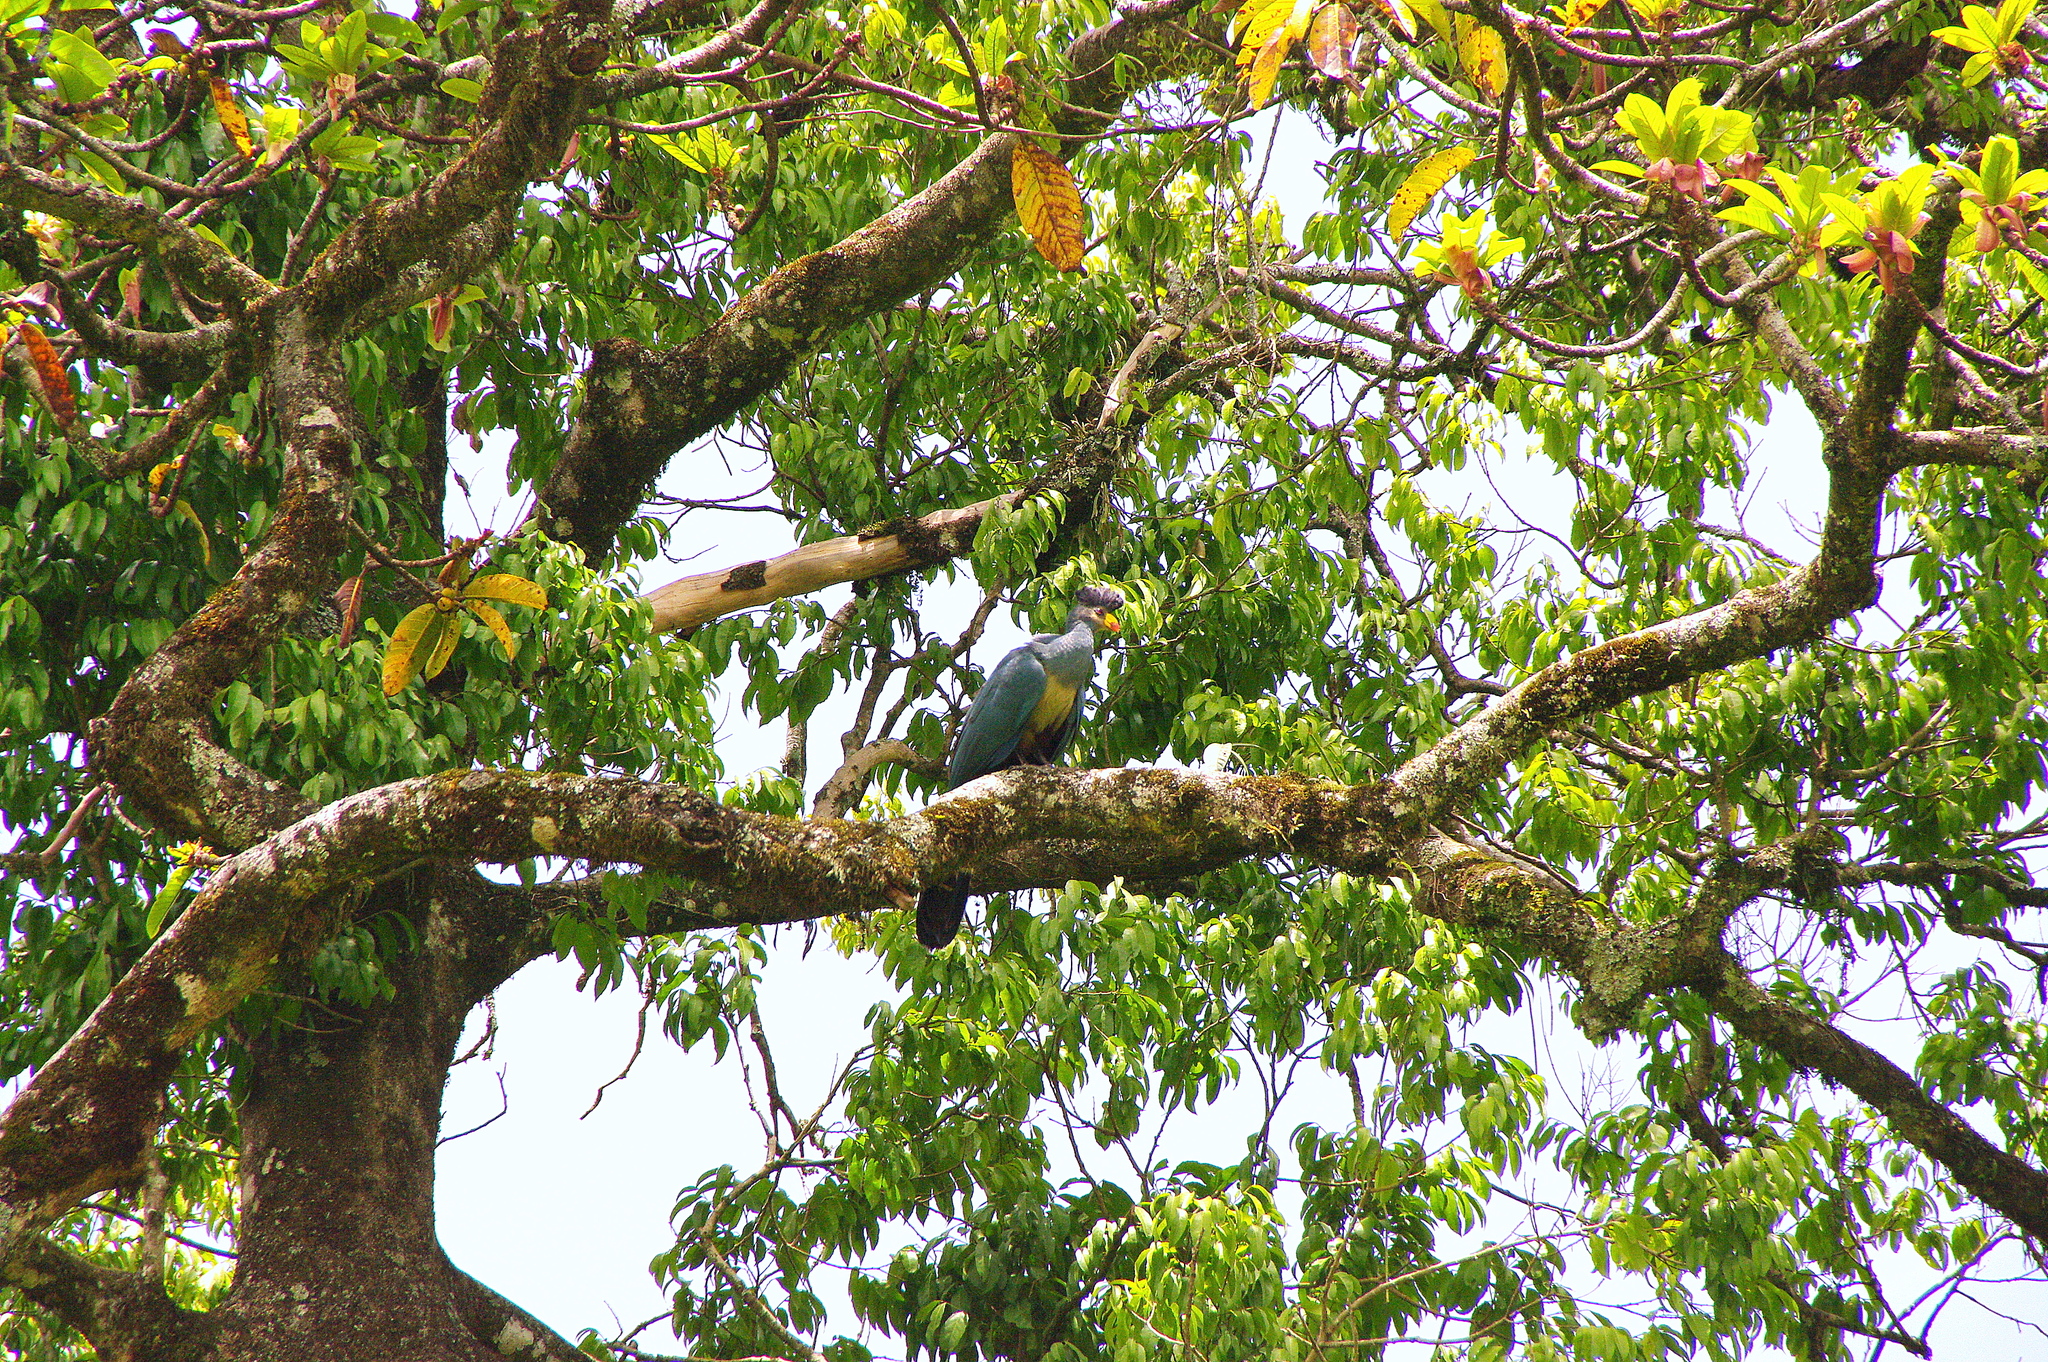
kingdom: Animalia
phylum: Chordata
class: Aves
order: Musophagiformes
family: Musophagidae
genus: Corythaeola
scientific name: Corythaeola cristata
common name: Great blue turaco
